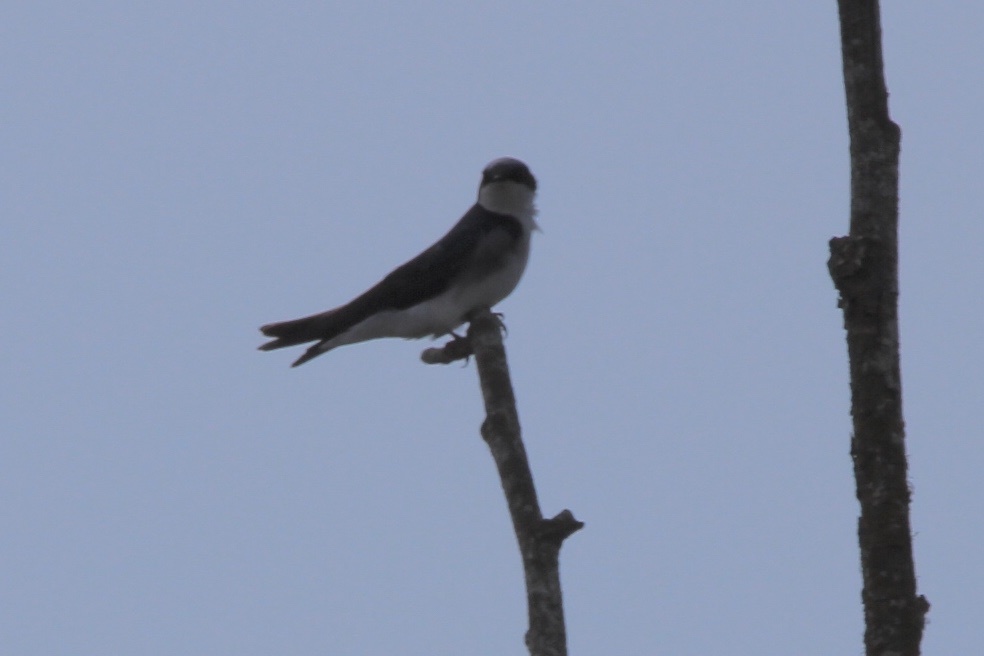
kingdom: Animalia
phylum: Chordata
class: Aves
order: Passeriformes
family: Hirundinidae
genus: Tachycineta
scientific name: Tachycineta bicolor
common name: Tree swallow
